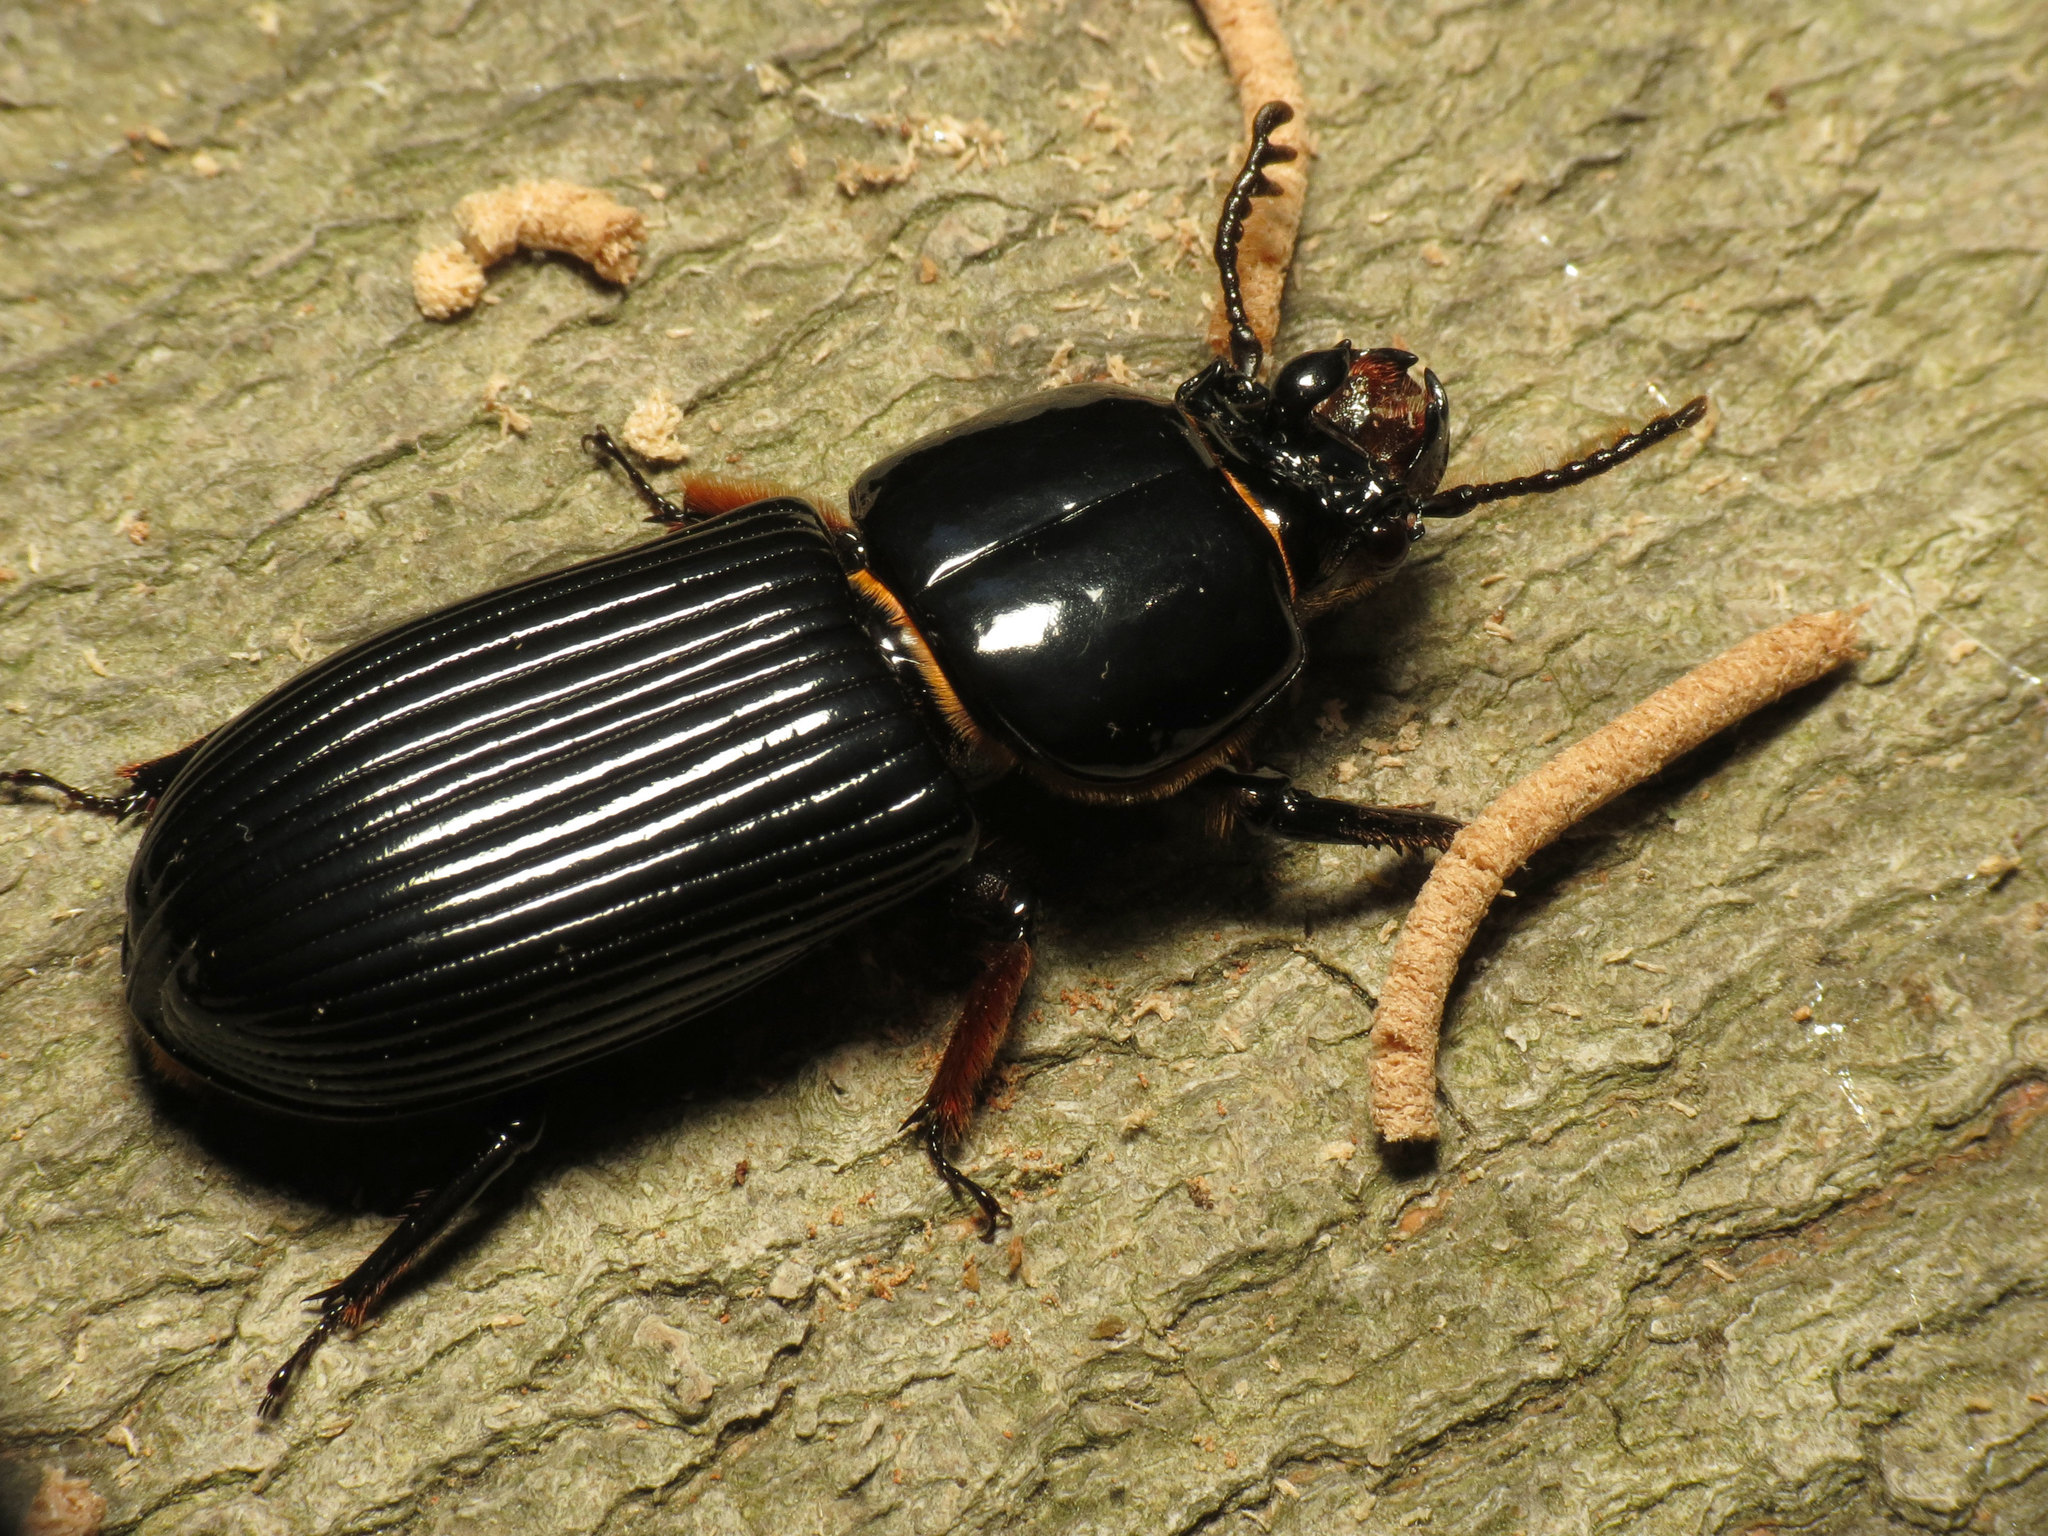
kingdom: Animalia
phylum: Arthropoda
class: Insecta
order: Coleoptera
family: Passalidae
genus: Odontotaenius
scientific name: Odontotaenius disjunctus
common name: Patent leather beetle
